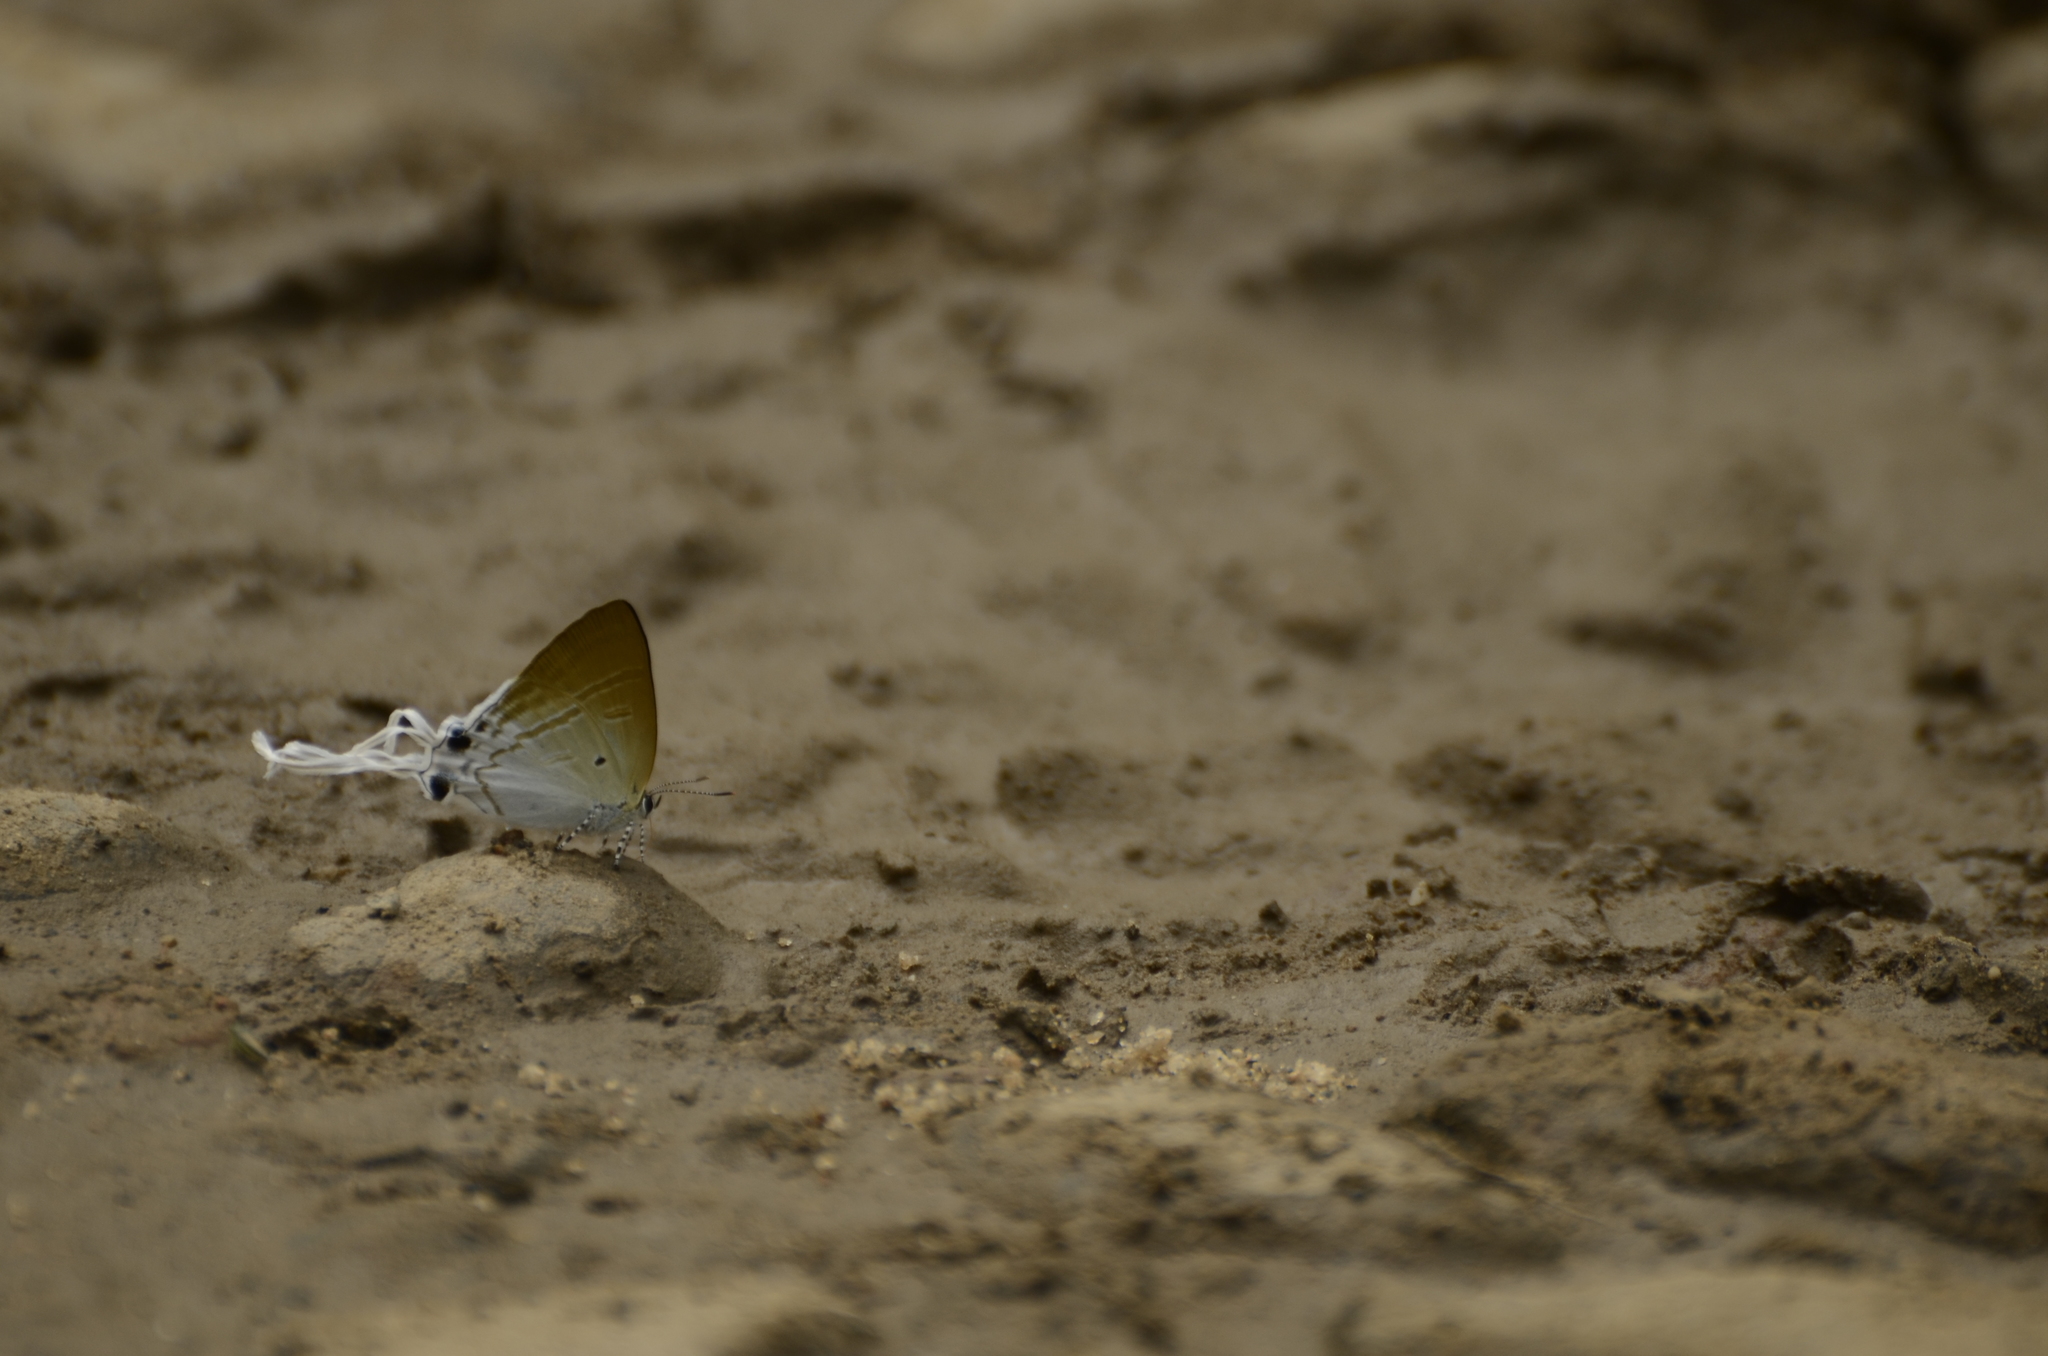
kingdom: Animalia
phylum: Arthropoda
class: Insecta
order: Lepidoptera
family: Lycaenidae
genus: Zeltus
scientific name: Zeltus amasa
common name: Fluffy tit
